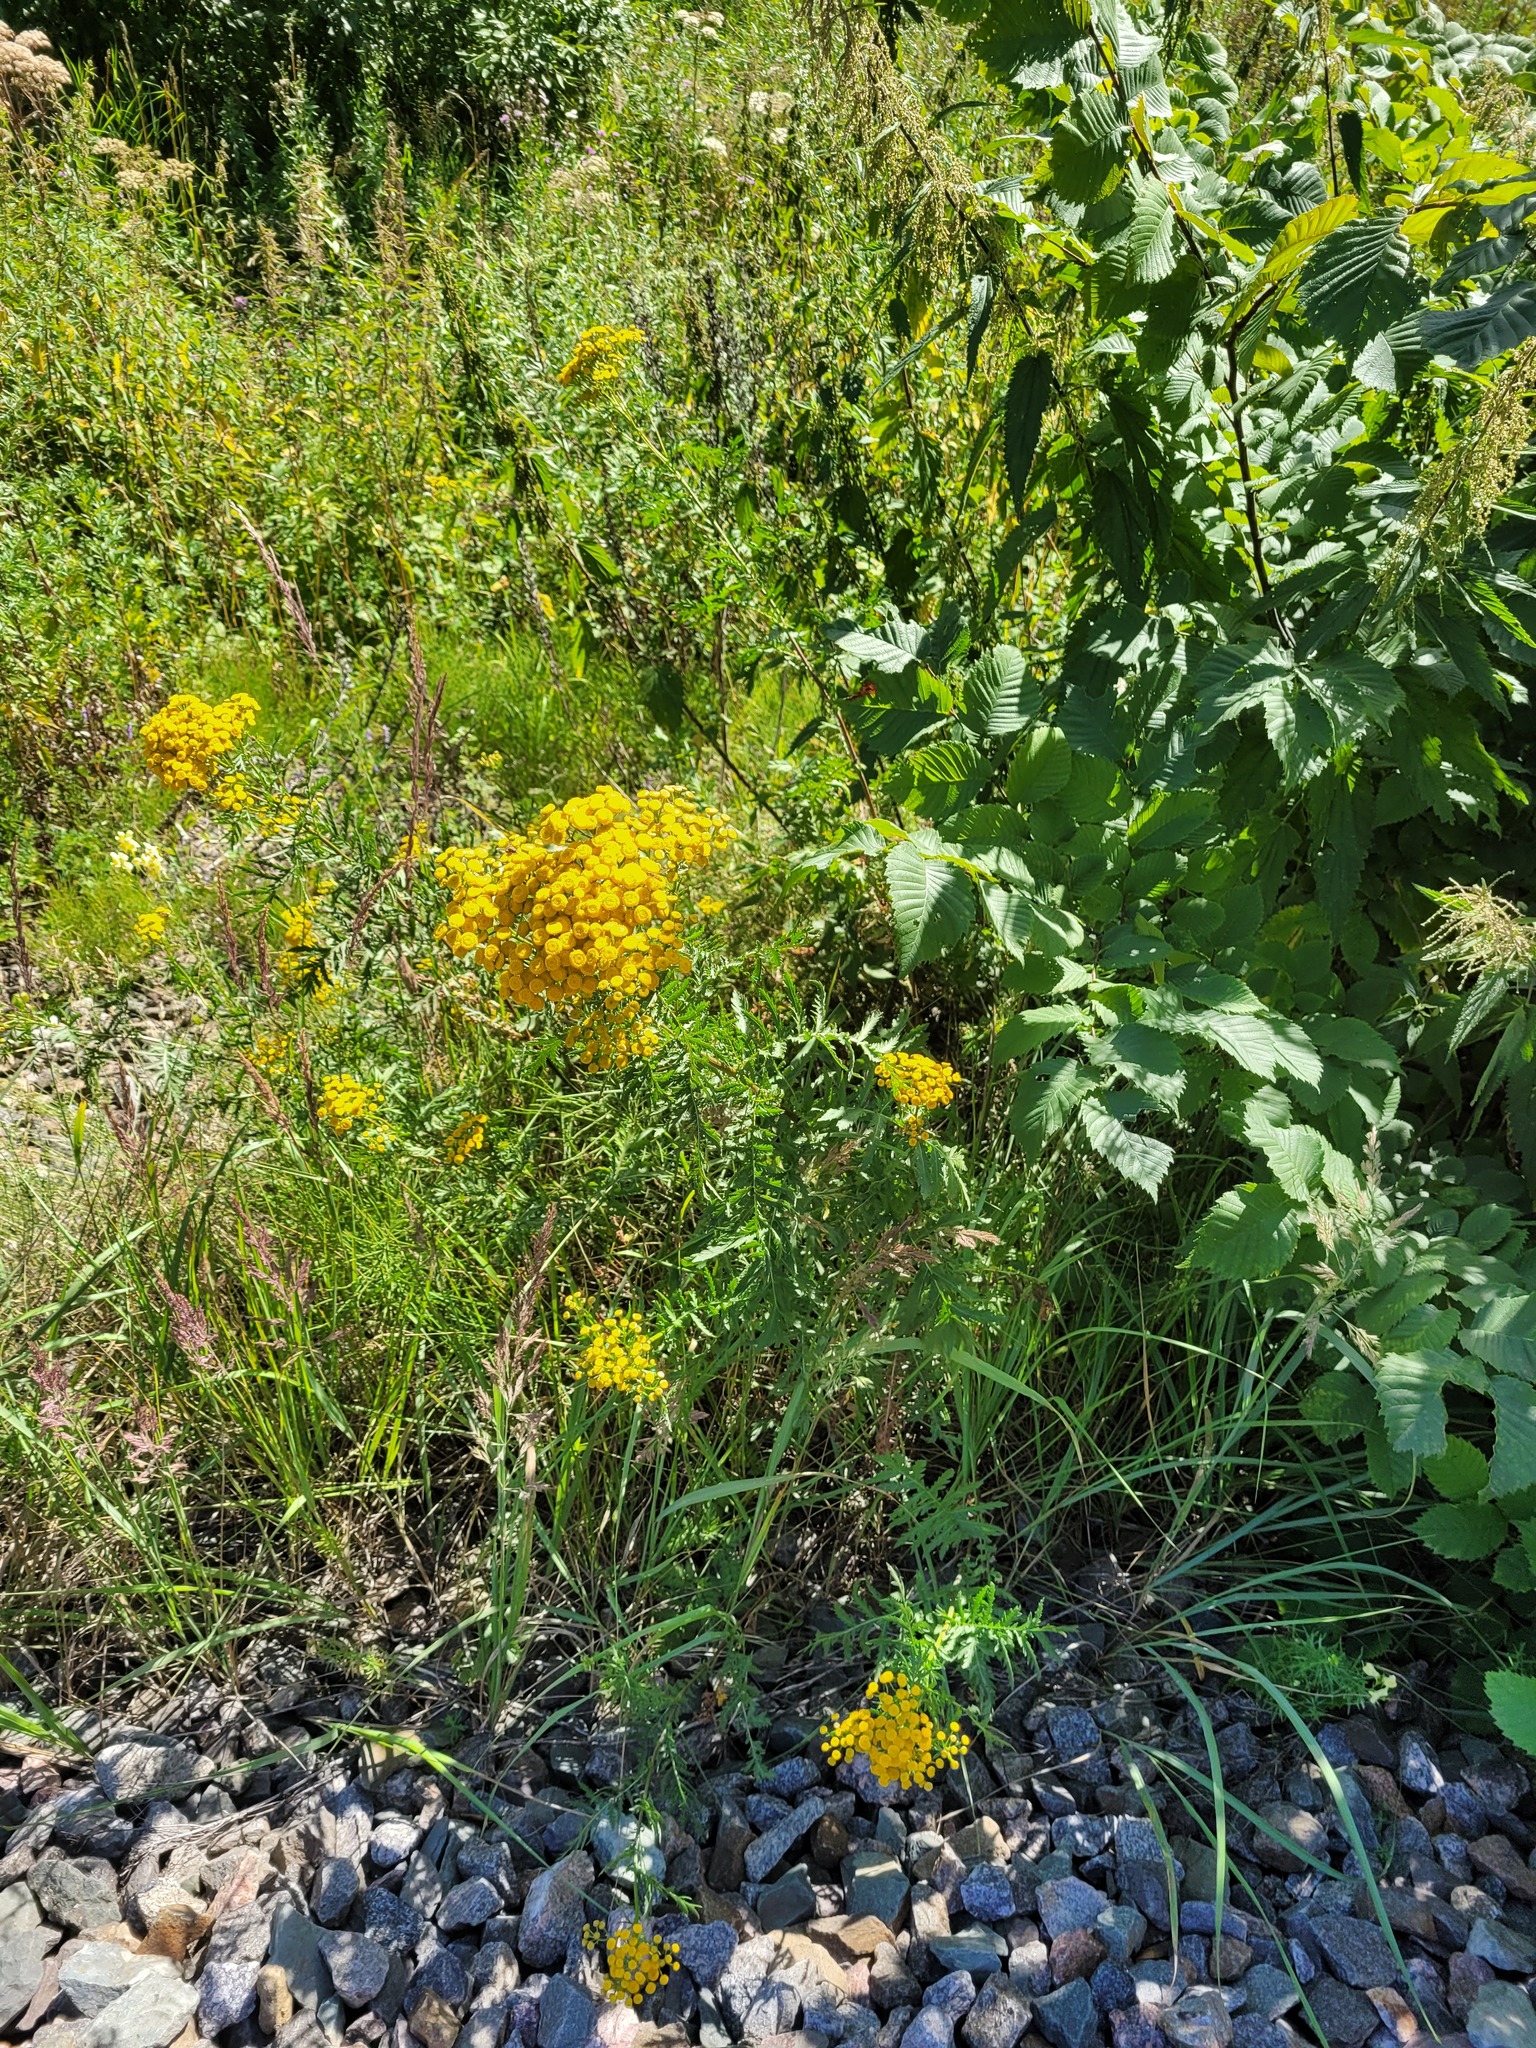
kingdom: Plantae
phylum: Tracheophyta
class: Magnoliopsida
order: Asterales
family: Asteraceae
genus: Tanacetum
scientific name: Tanacetum vulgare
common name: Common tansy
